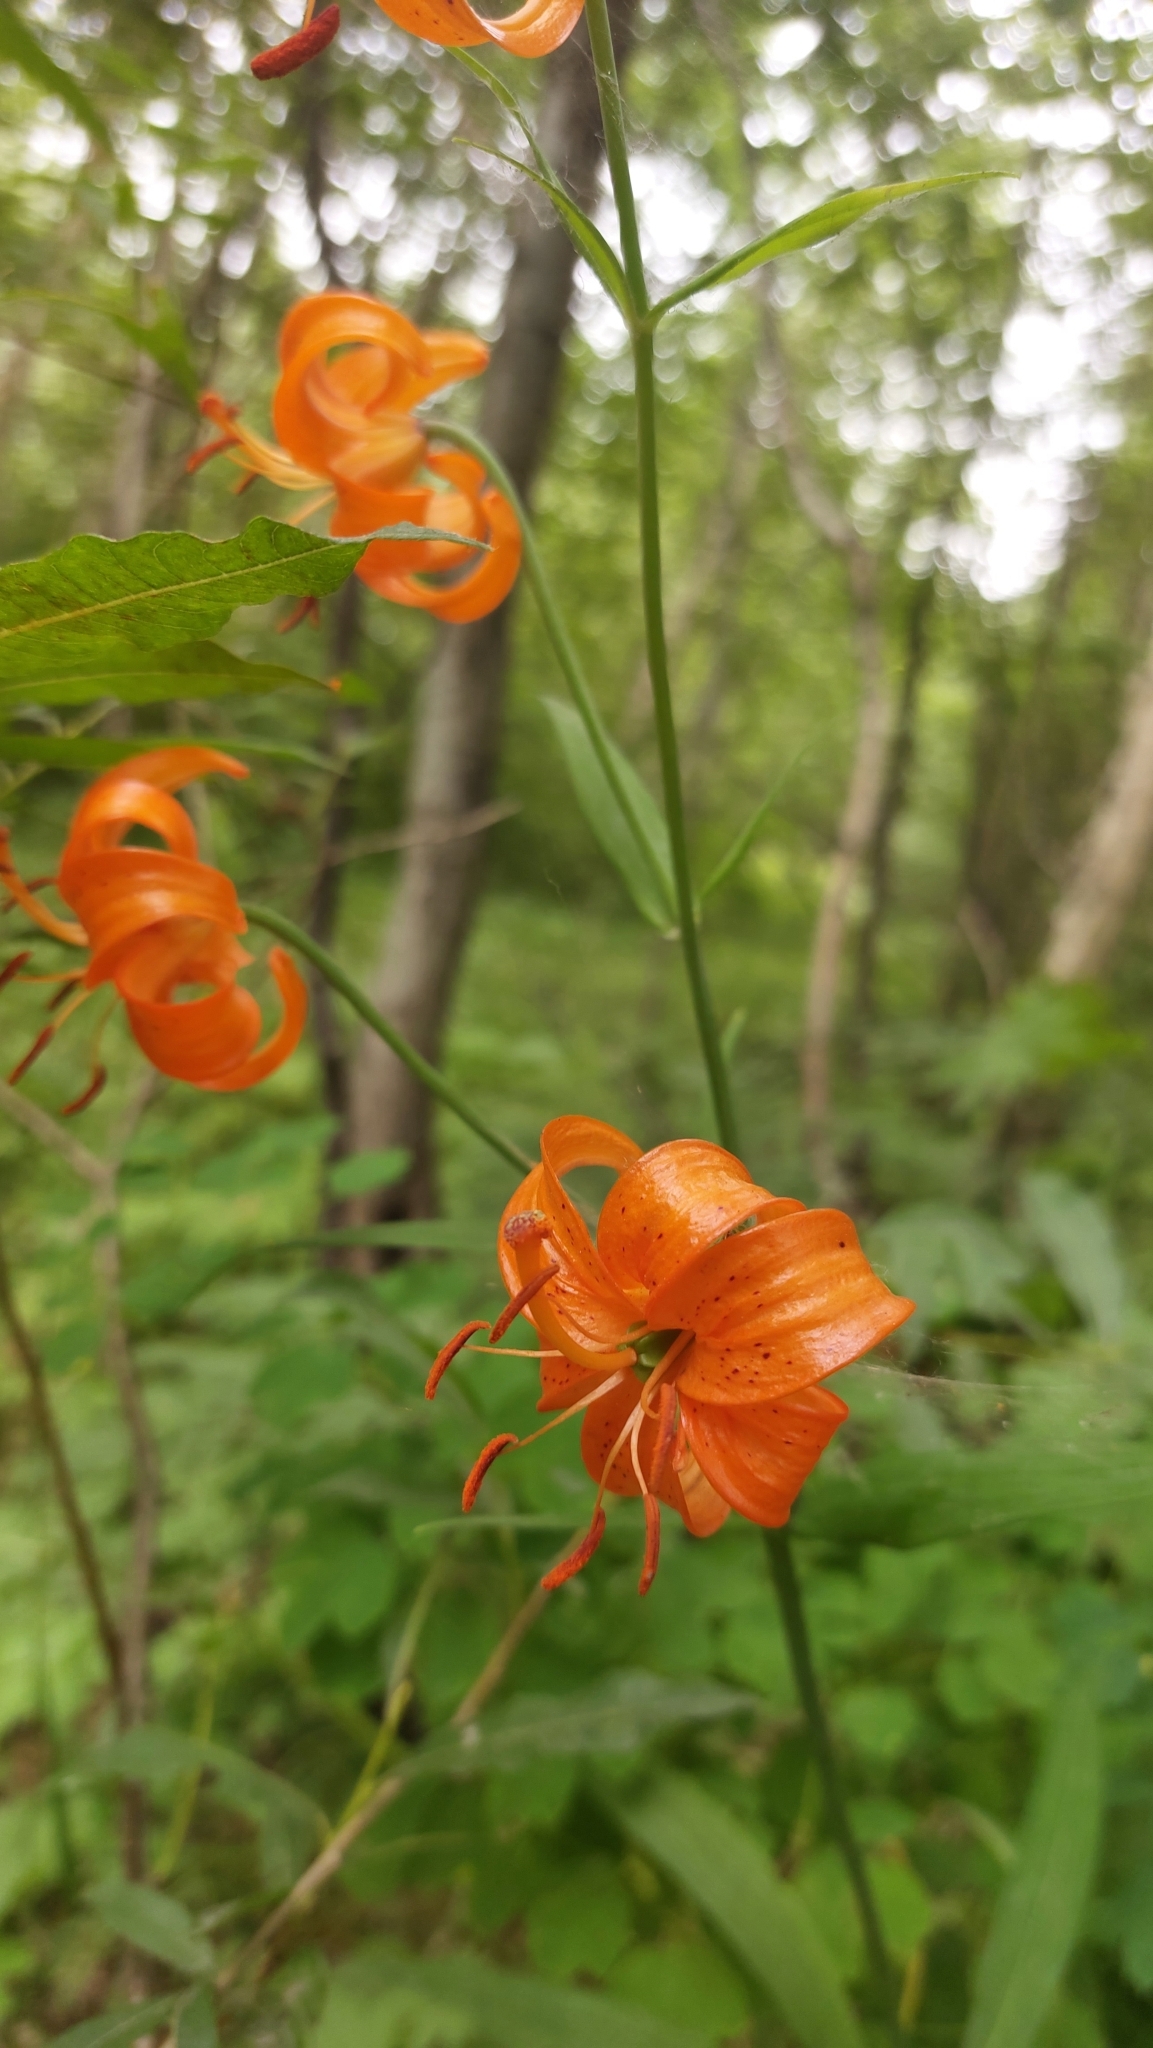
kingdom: Plantae
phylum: Tracheophyta
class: Liliopsida
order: Liliales
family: Liliaceae
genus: Lilium
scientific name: Lilium debile
